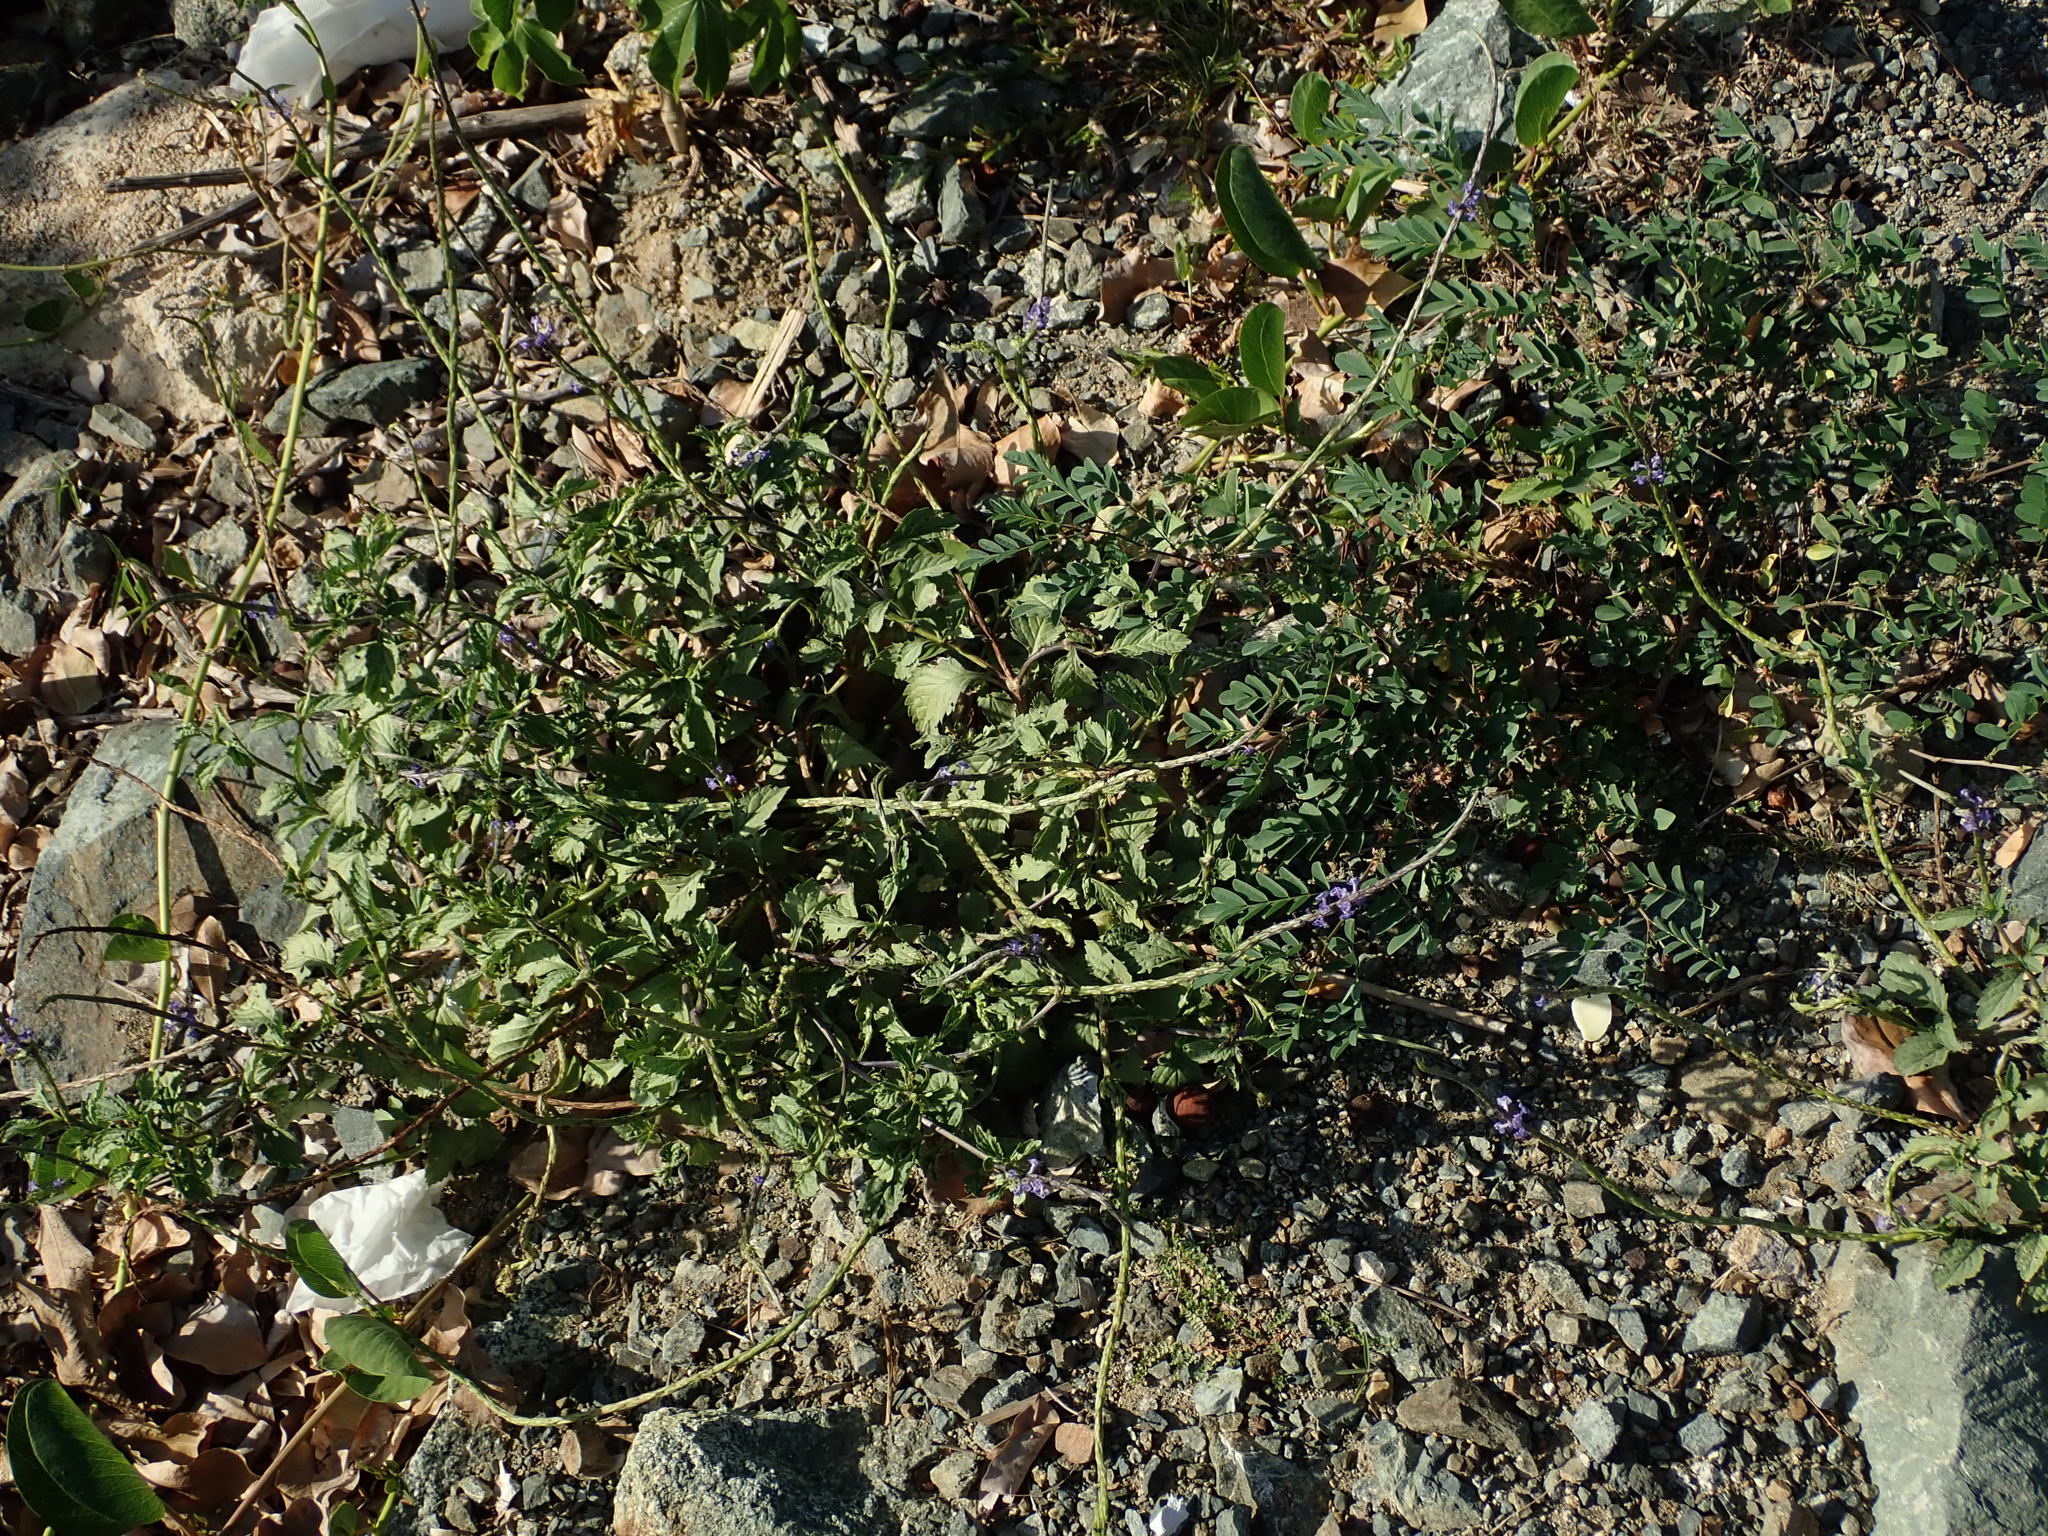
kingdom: Plantae
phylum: Tracheophyta
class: Magnoliopsida
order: Lamiales
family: Verbenaceae
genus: Stachytarpheta
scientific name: Stachytarpheta jamaicensis
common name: Light-blue snakeweed
